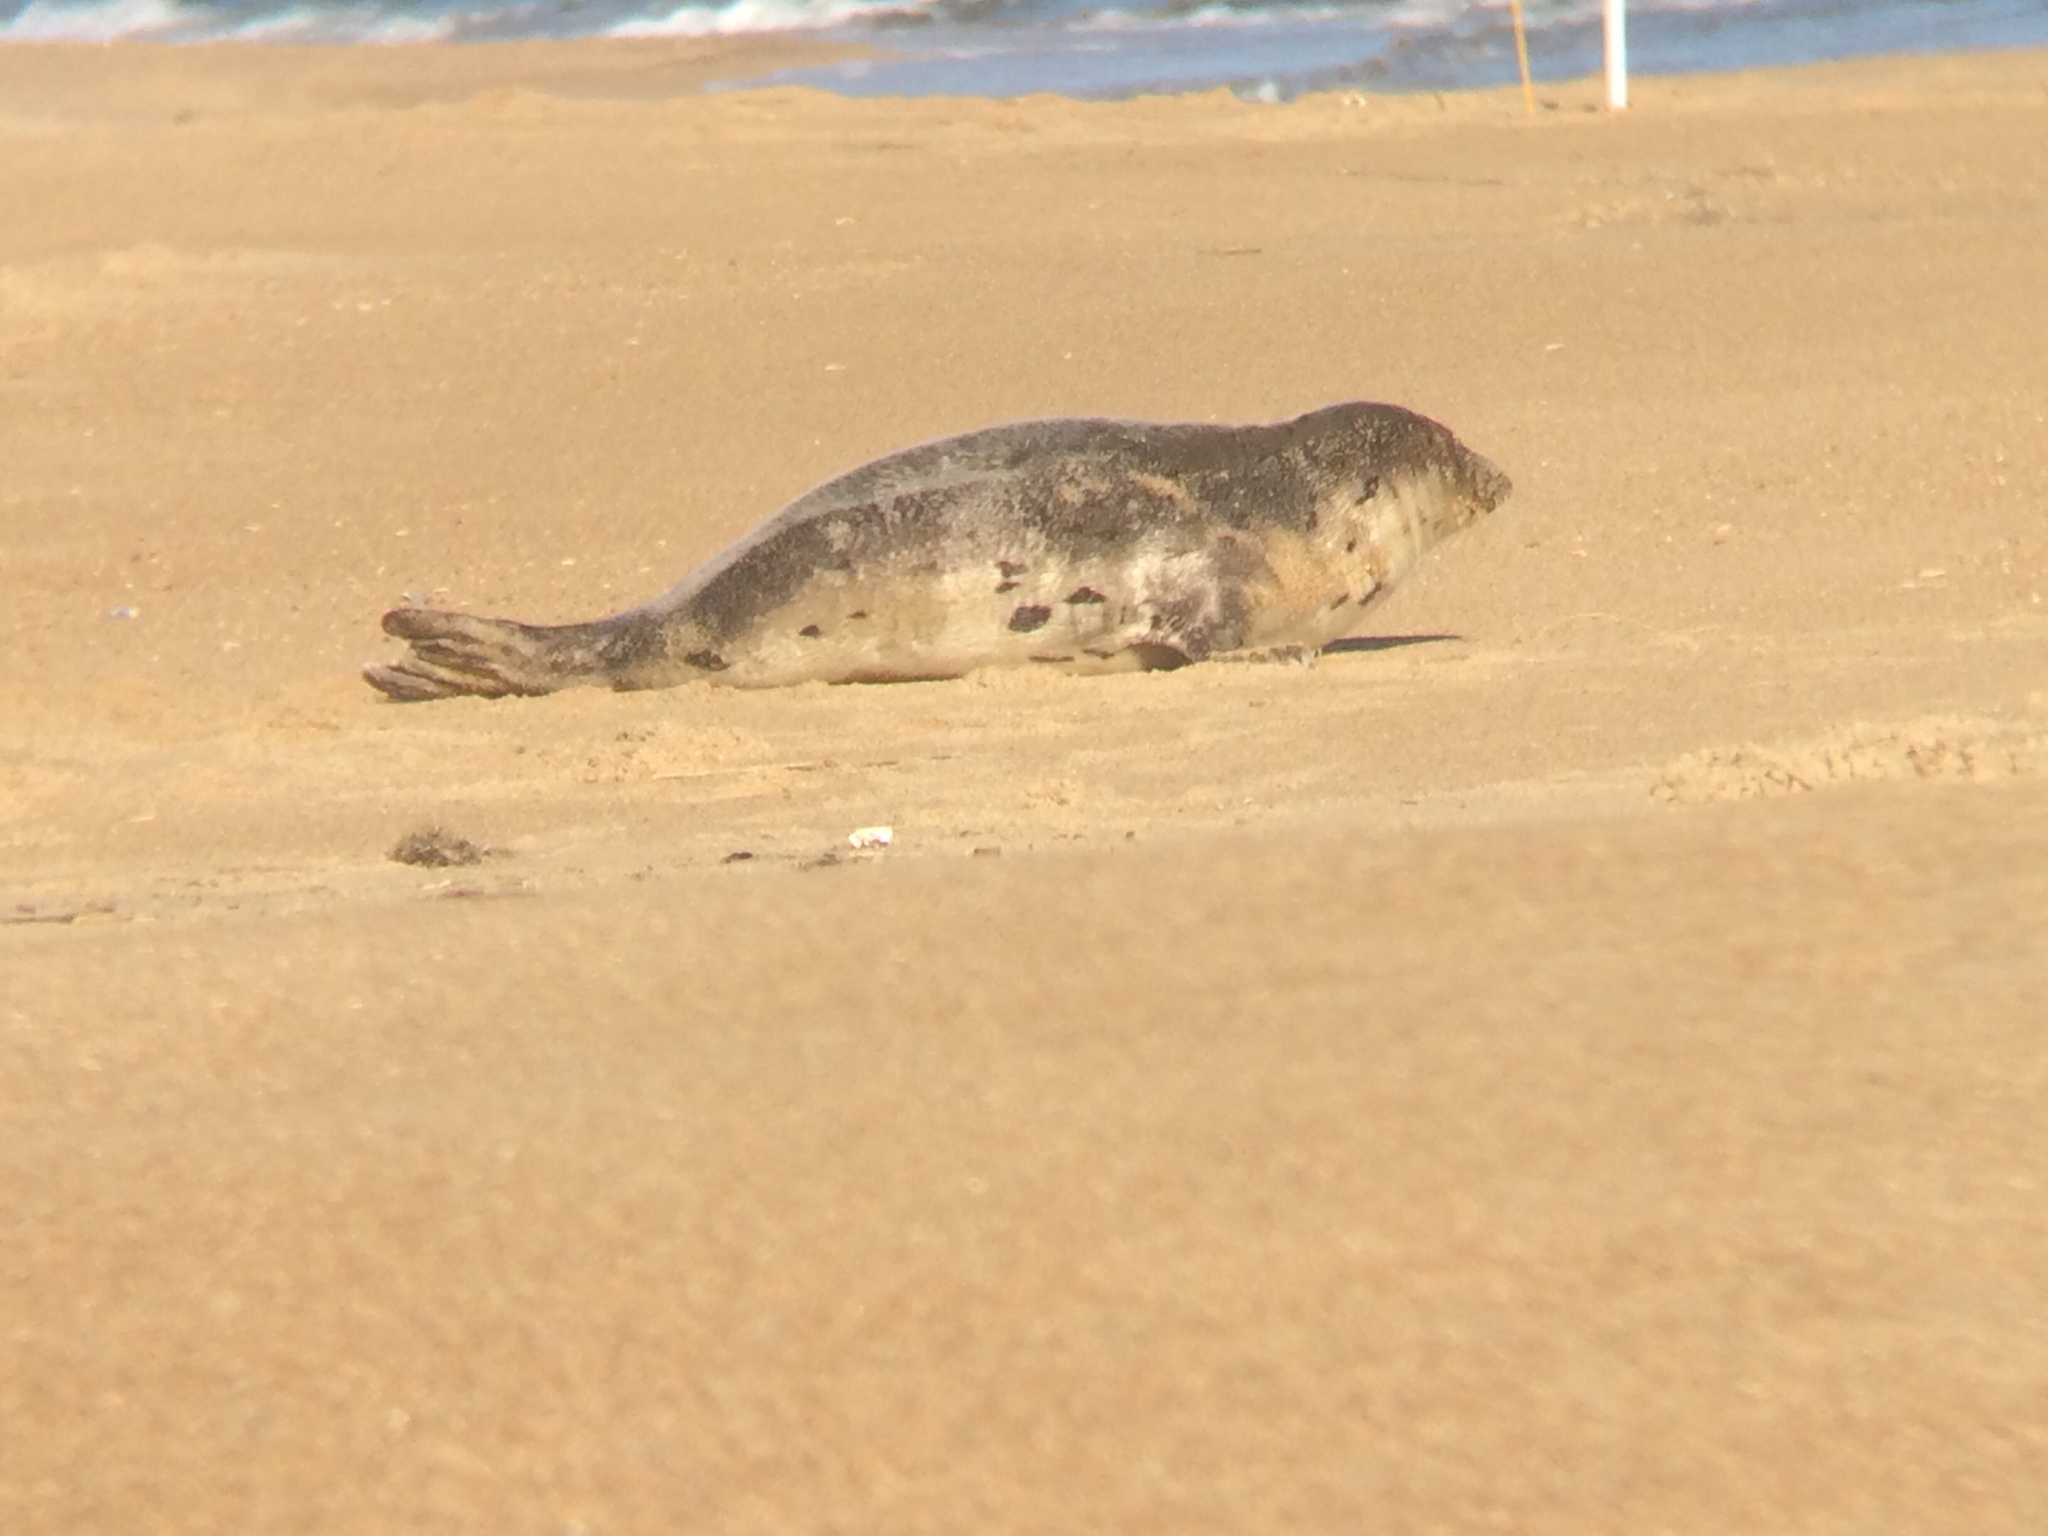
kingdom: Animalia
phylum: Chordata
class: Mammalia
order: Carnivora
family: Phocidae
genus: Pagophilus
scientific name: Pagophilus groenlandicus
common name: Harp seal
